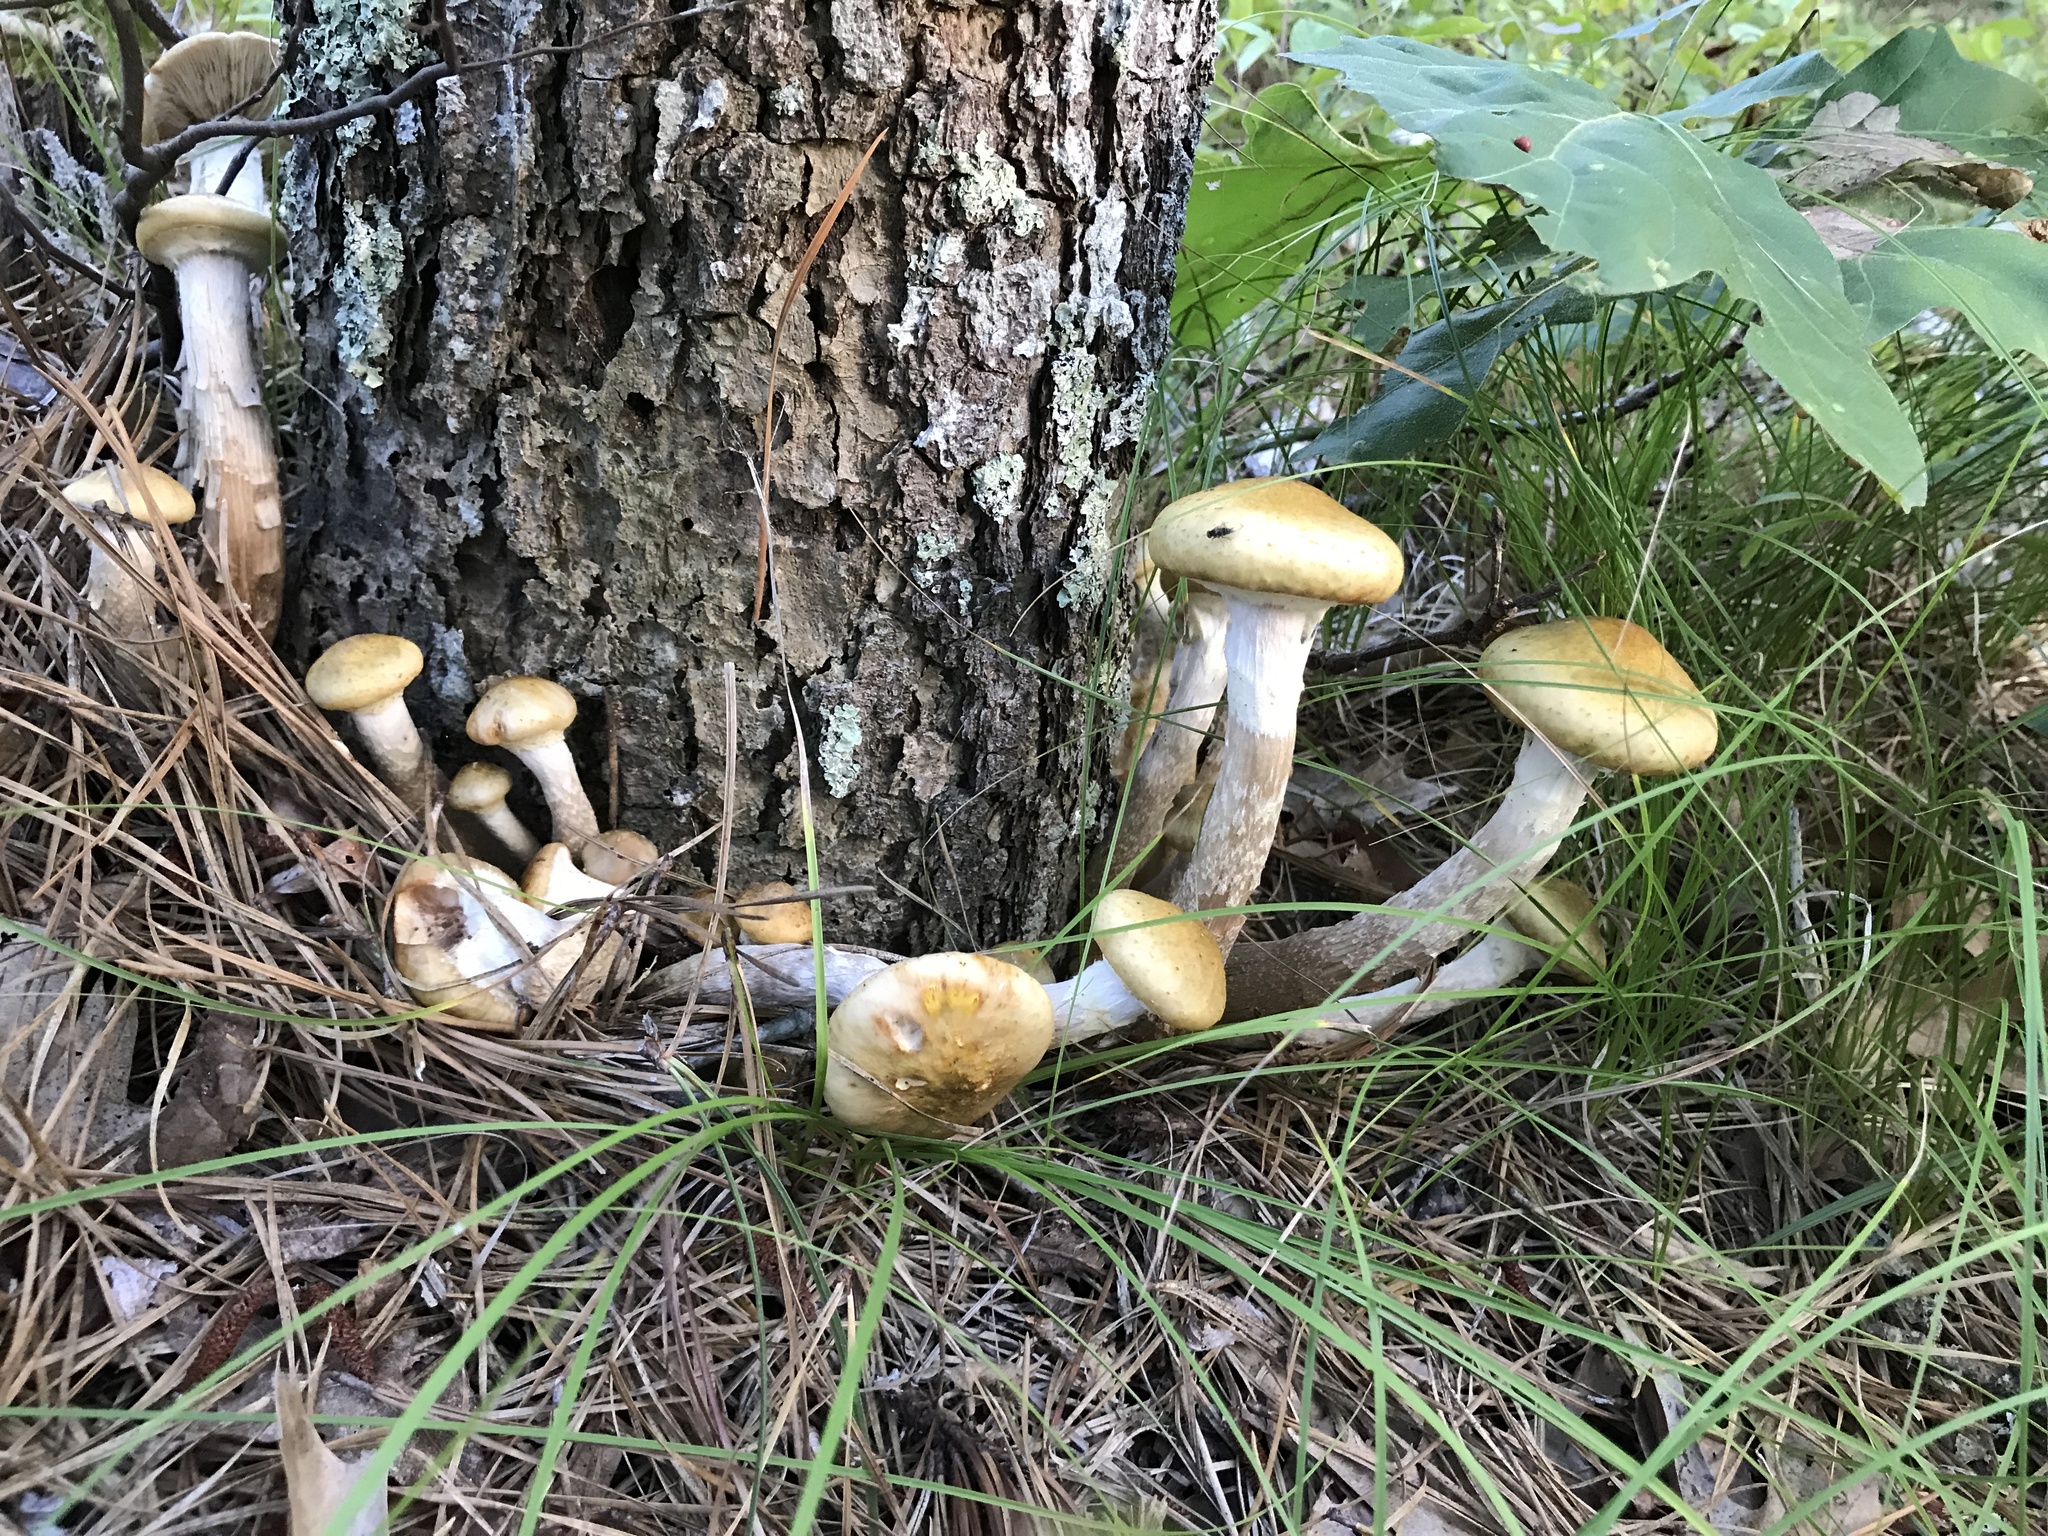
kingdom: Fungi
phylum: Basidiomycota
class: Agaricomycetes
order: Agaricales
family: Physalacriaceae
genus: Armillaria
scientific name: Armillaria mellea
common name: Honey fungus
